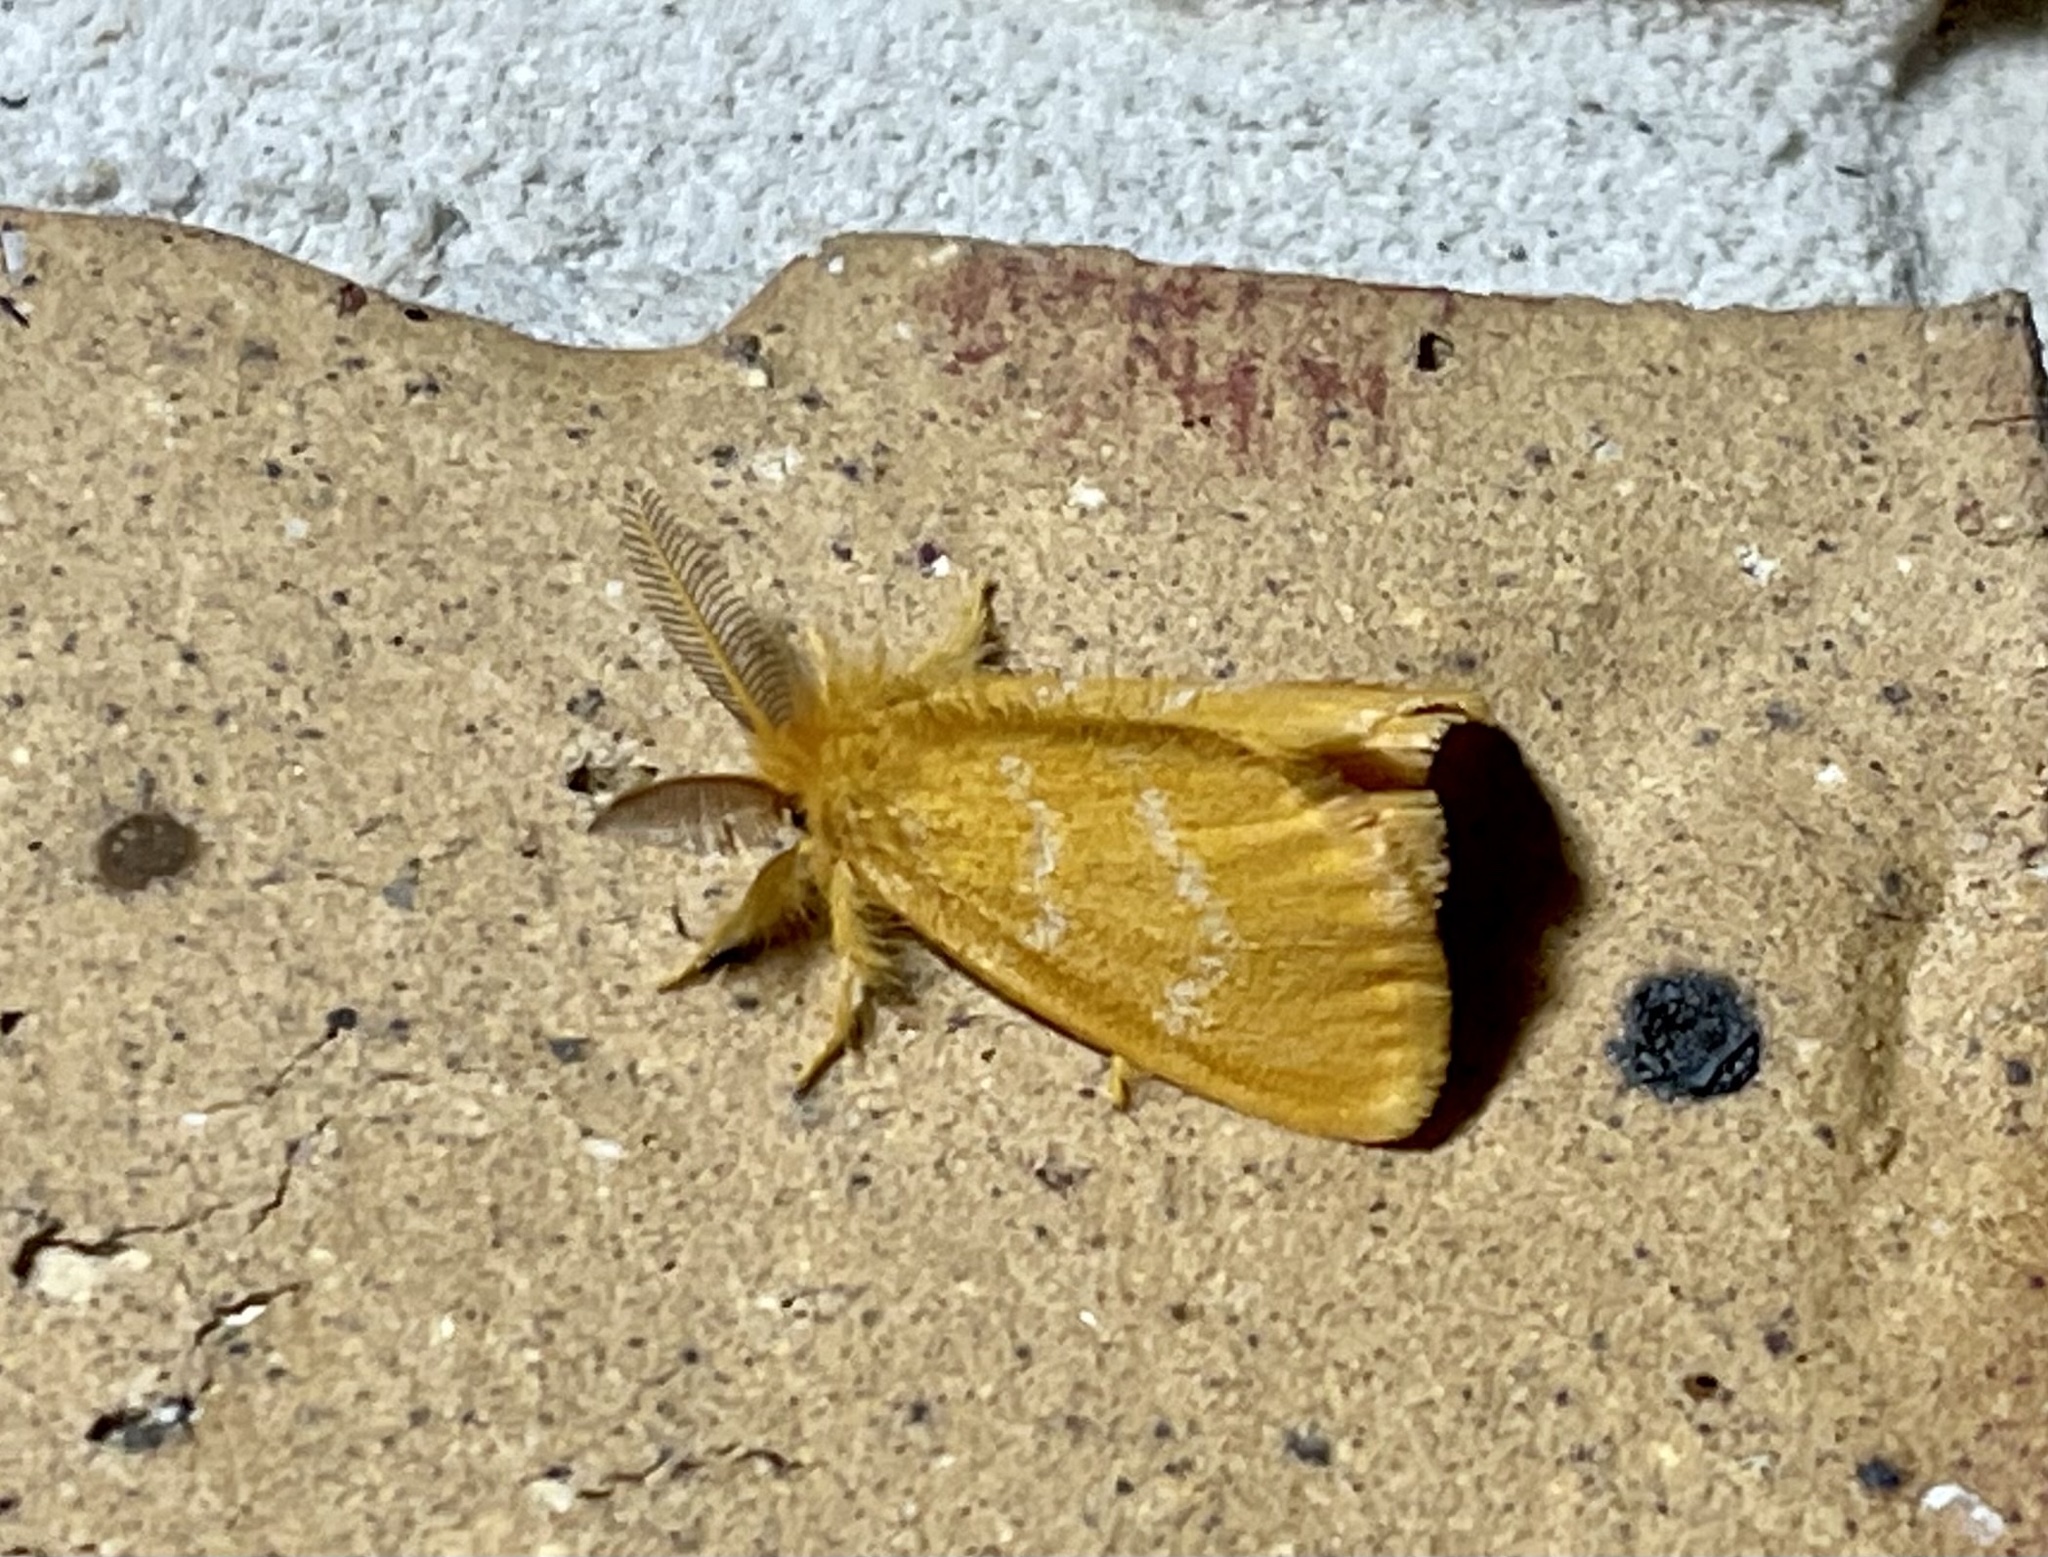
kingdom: Animalia
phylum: Arthropoda
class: Insecta
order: Lepidoptera
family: Erebidae
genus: Euproctis
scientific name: Euproctis lutea
